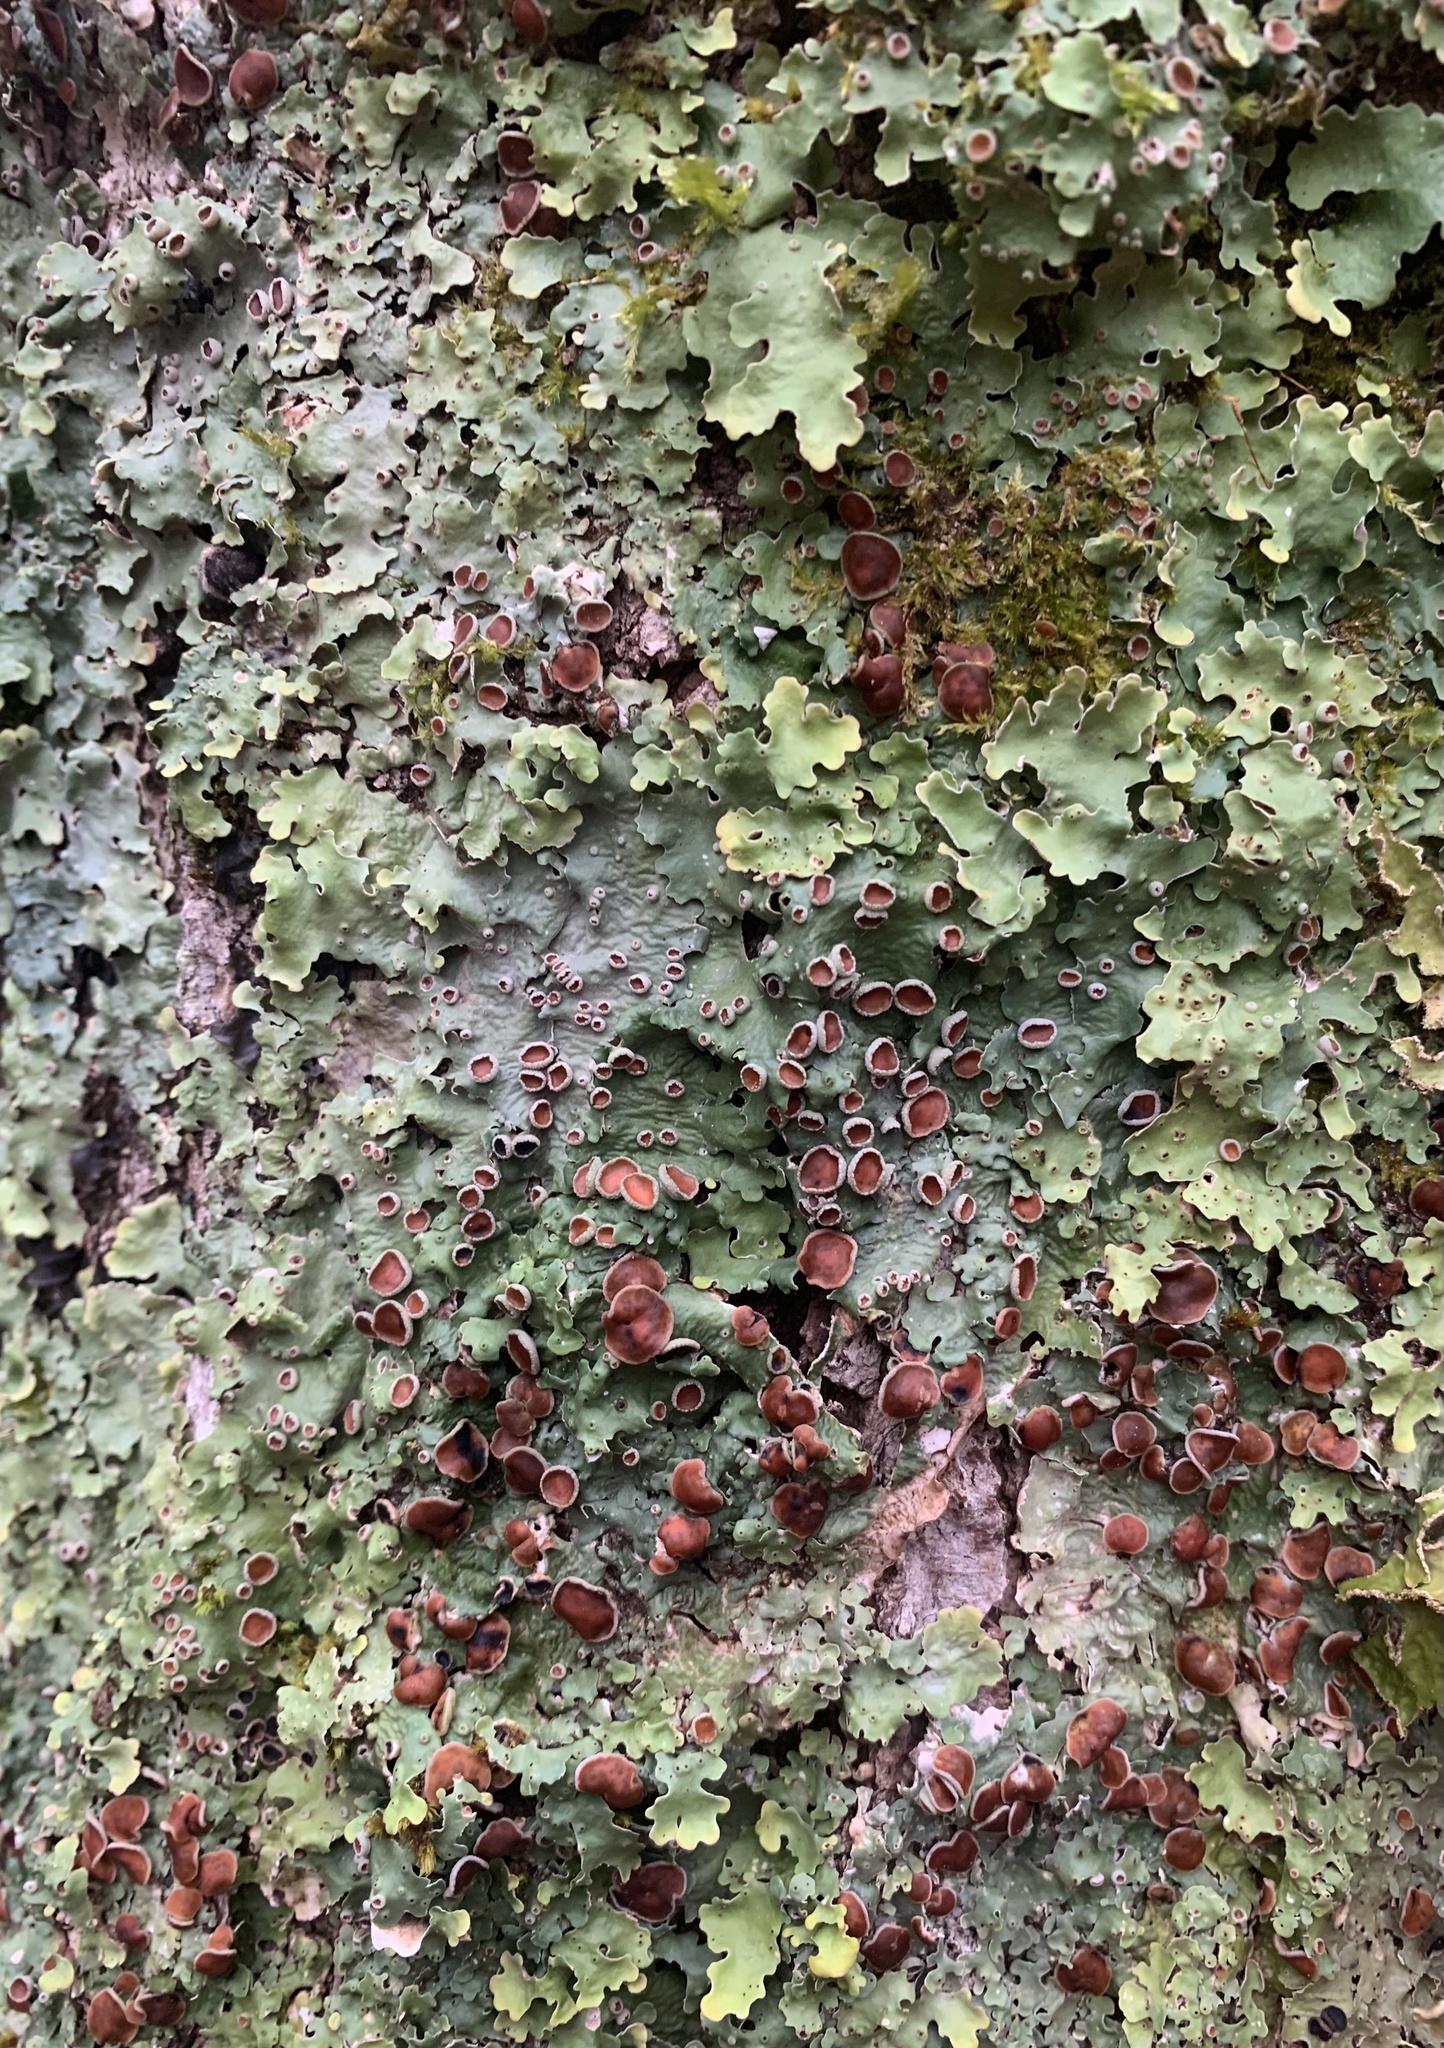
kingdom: Fungi
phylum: Ascomycota
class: Lecanoromycetes
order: Peltigerales
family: Lobariaceae
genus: Ricasolia
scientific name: Ricasolia quercizans
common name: Smooth lungwort
